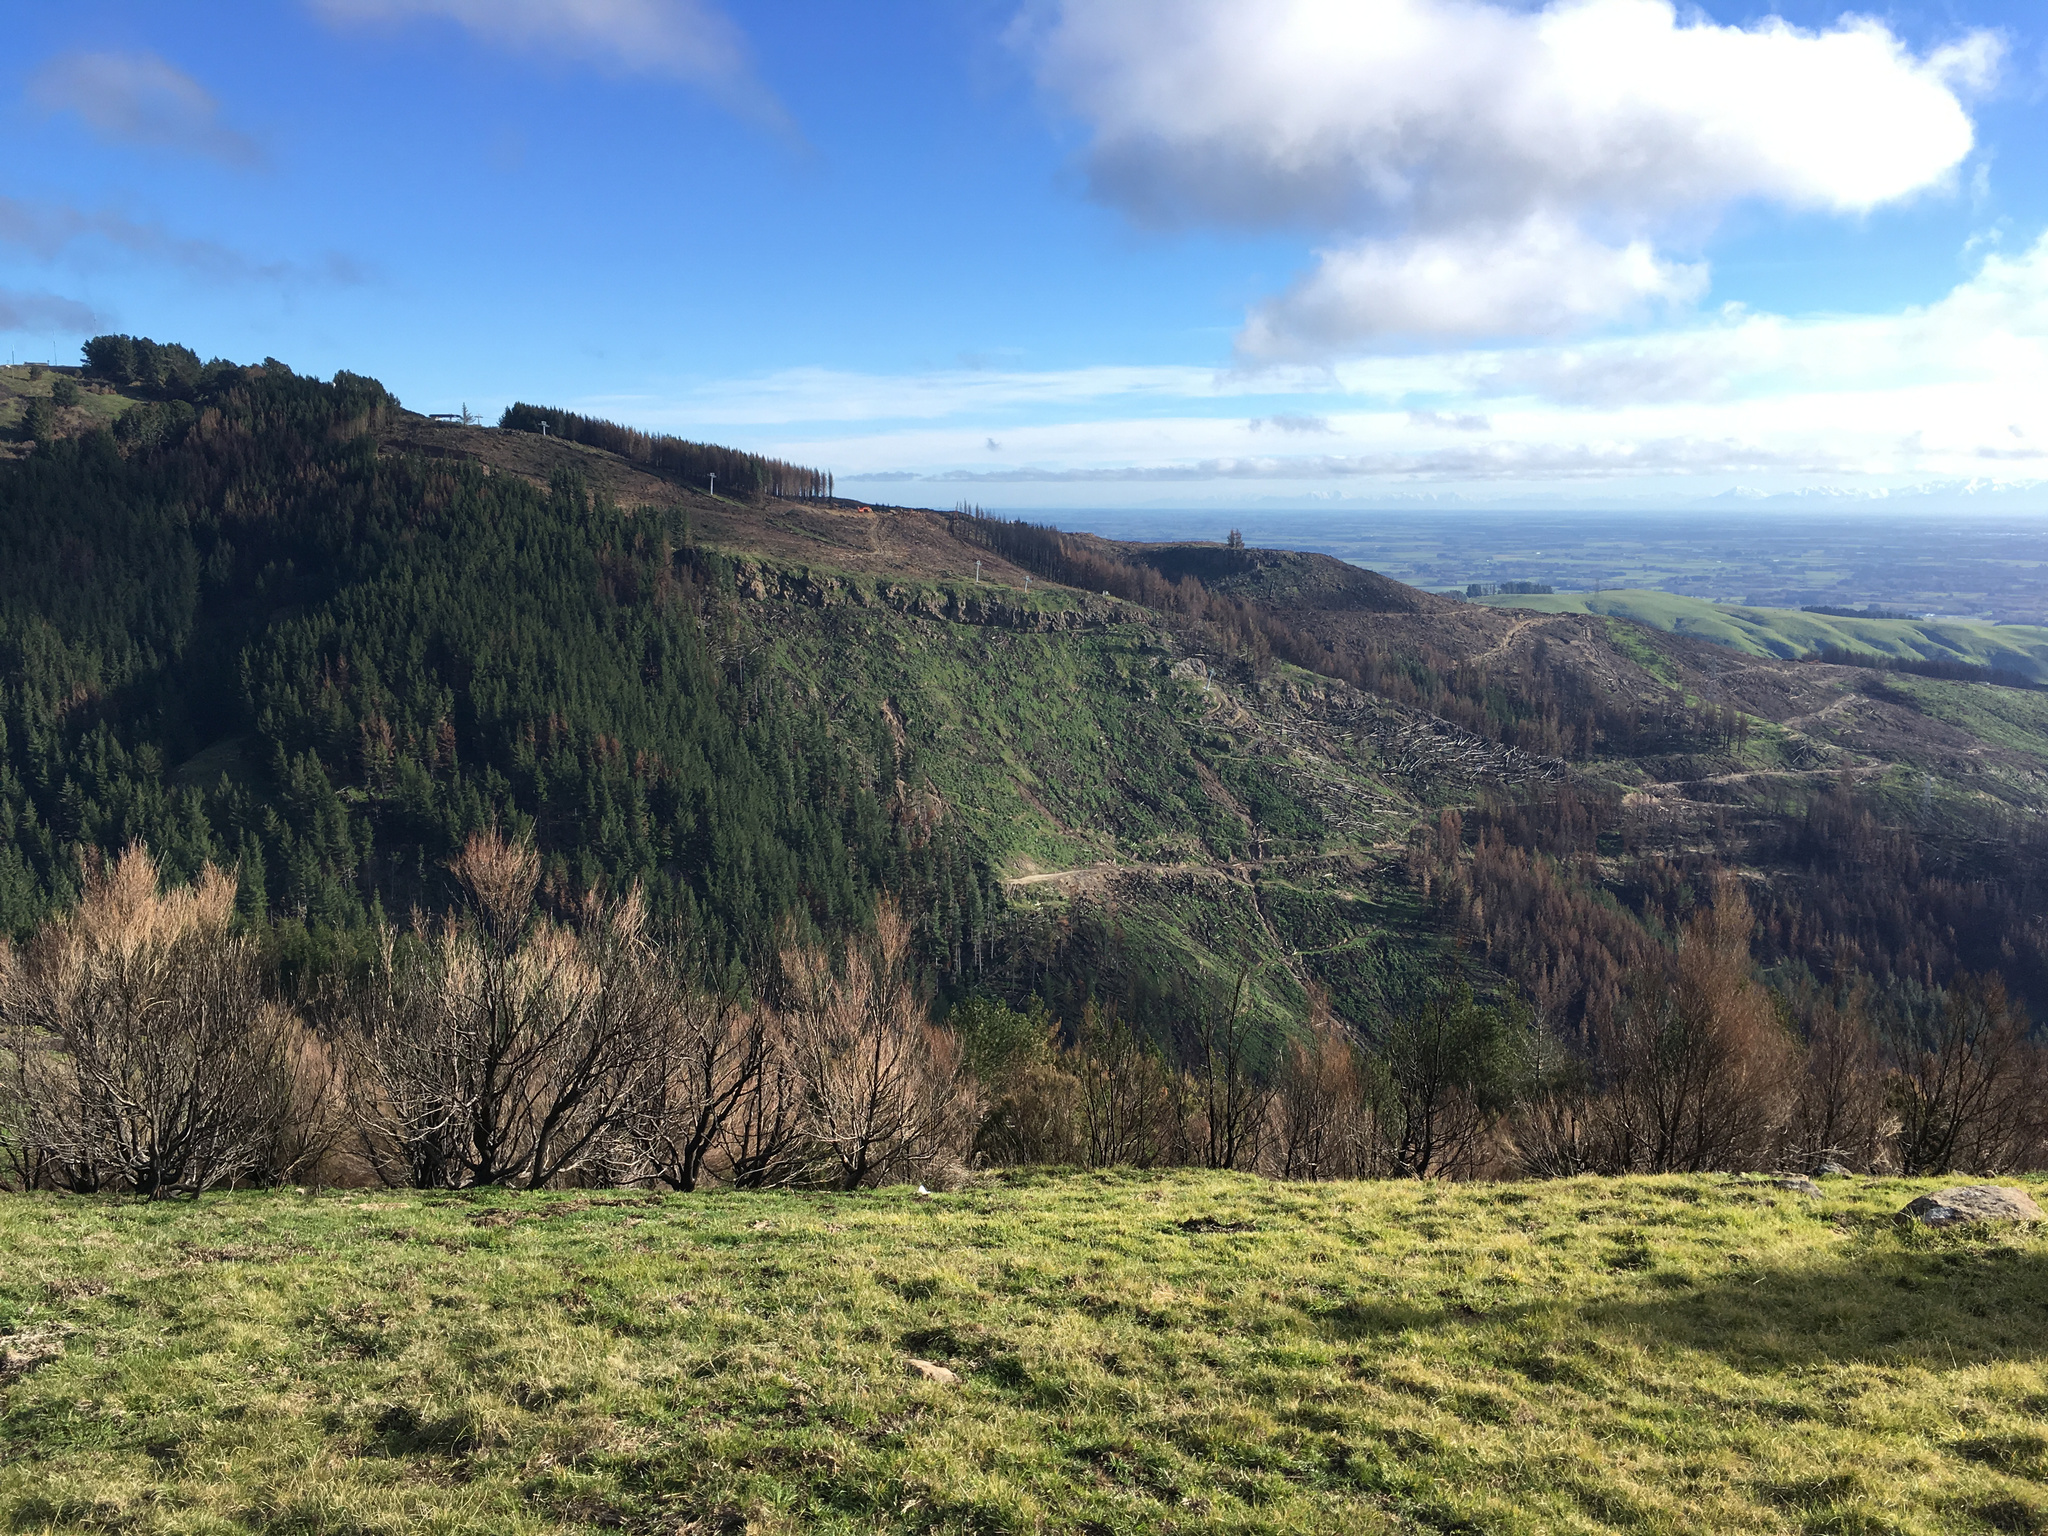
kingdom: Plantae
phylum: Tracheophyta
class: Magnoliopsida
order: Myrtales
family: Myrtaceae
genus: Kunzea
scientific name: Kunzea robusta
